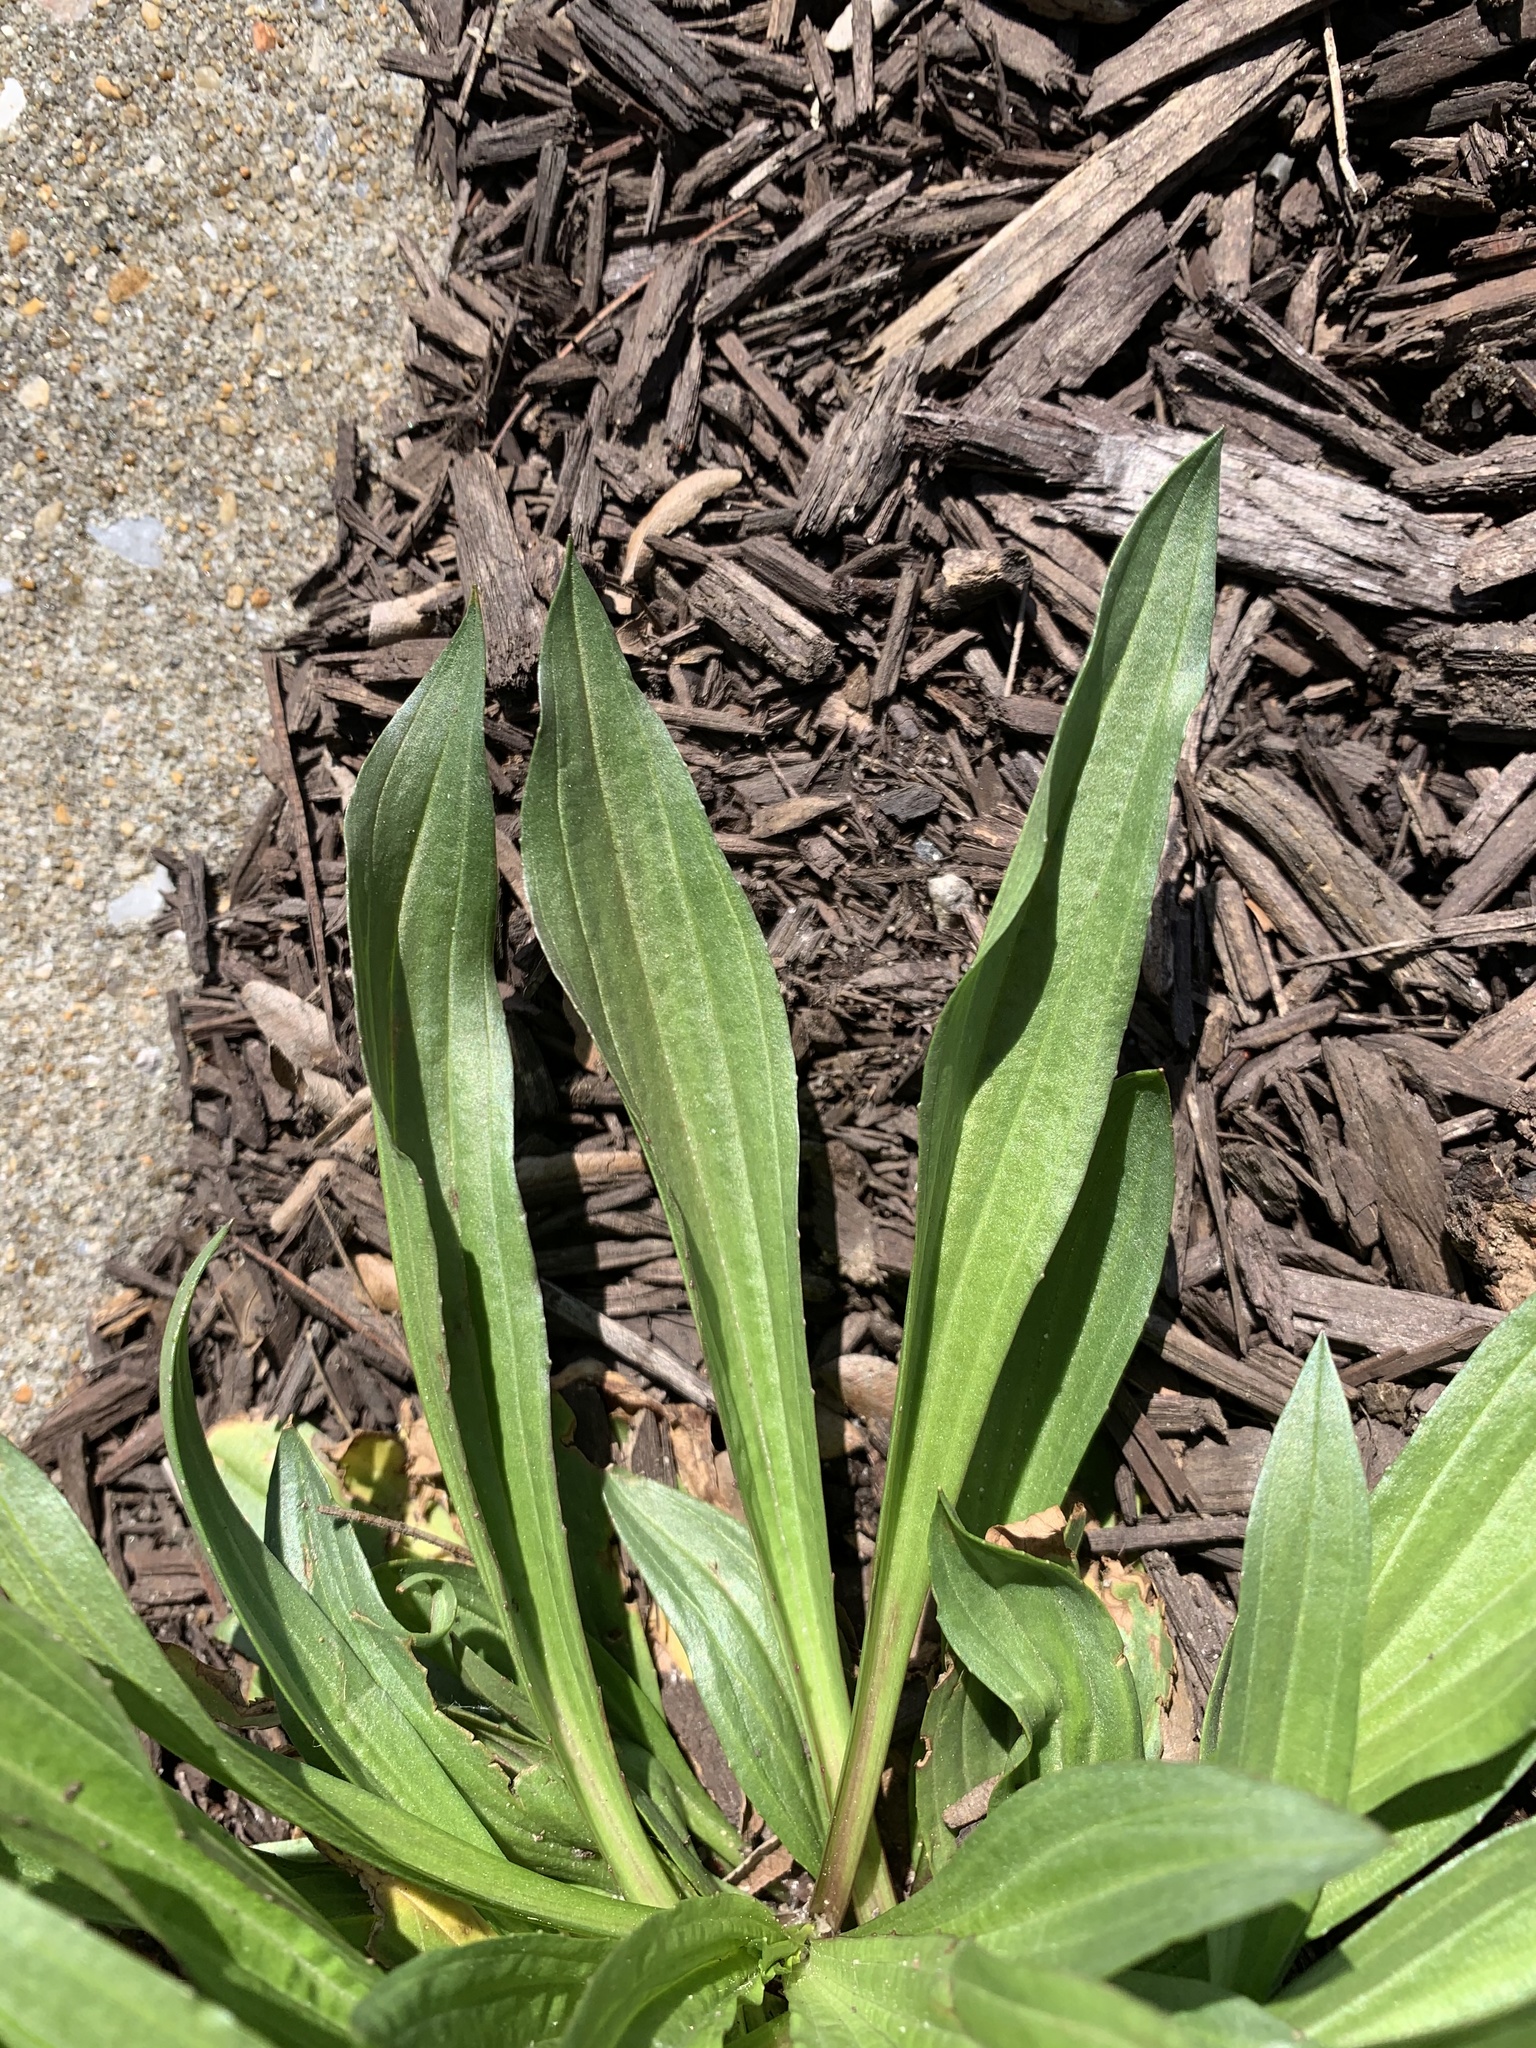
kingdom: Plantae
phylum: Tracheophyta
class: Magnoliopsida
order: Lamiales
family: Plantaginaceae
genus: Plantago
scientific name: Plantago lanceolata
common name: Ribwort plantain
